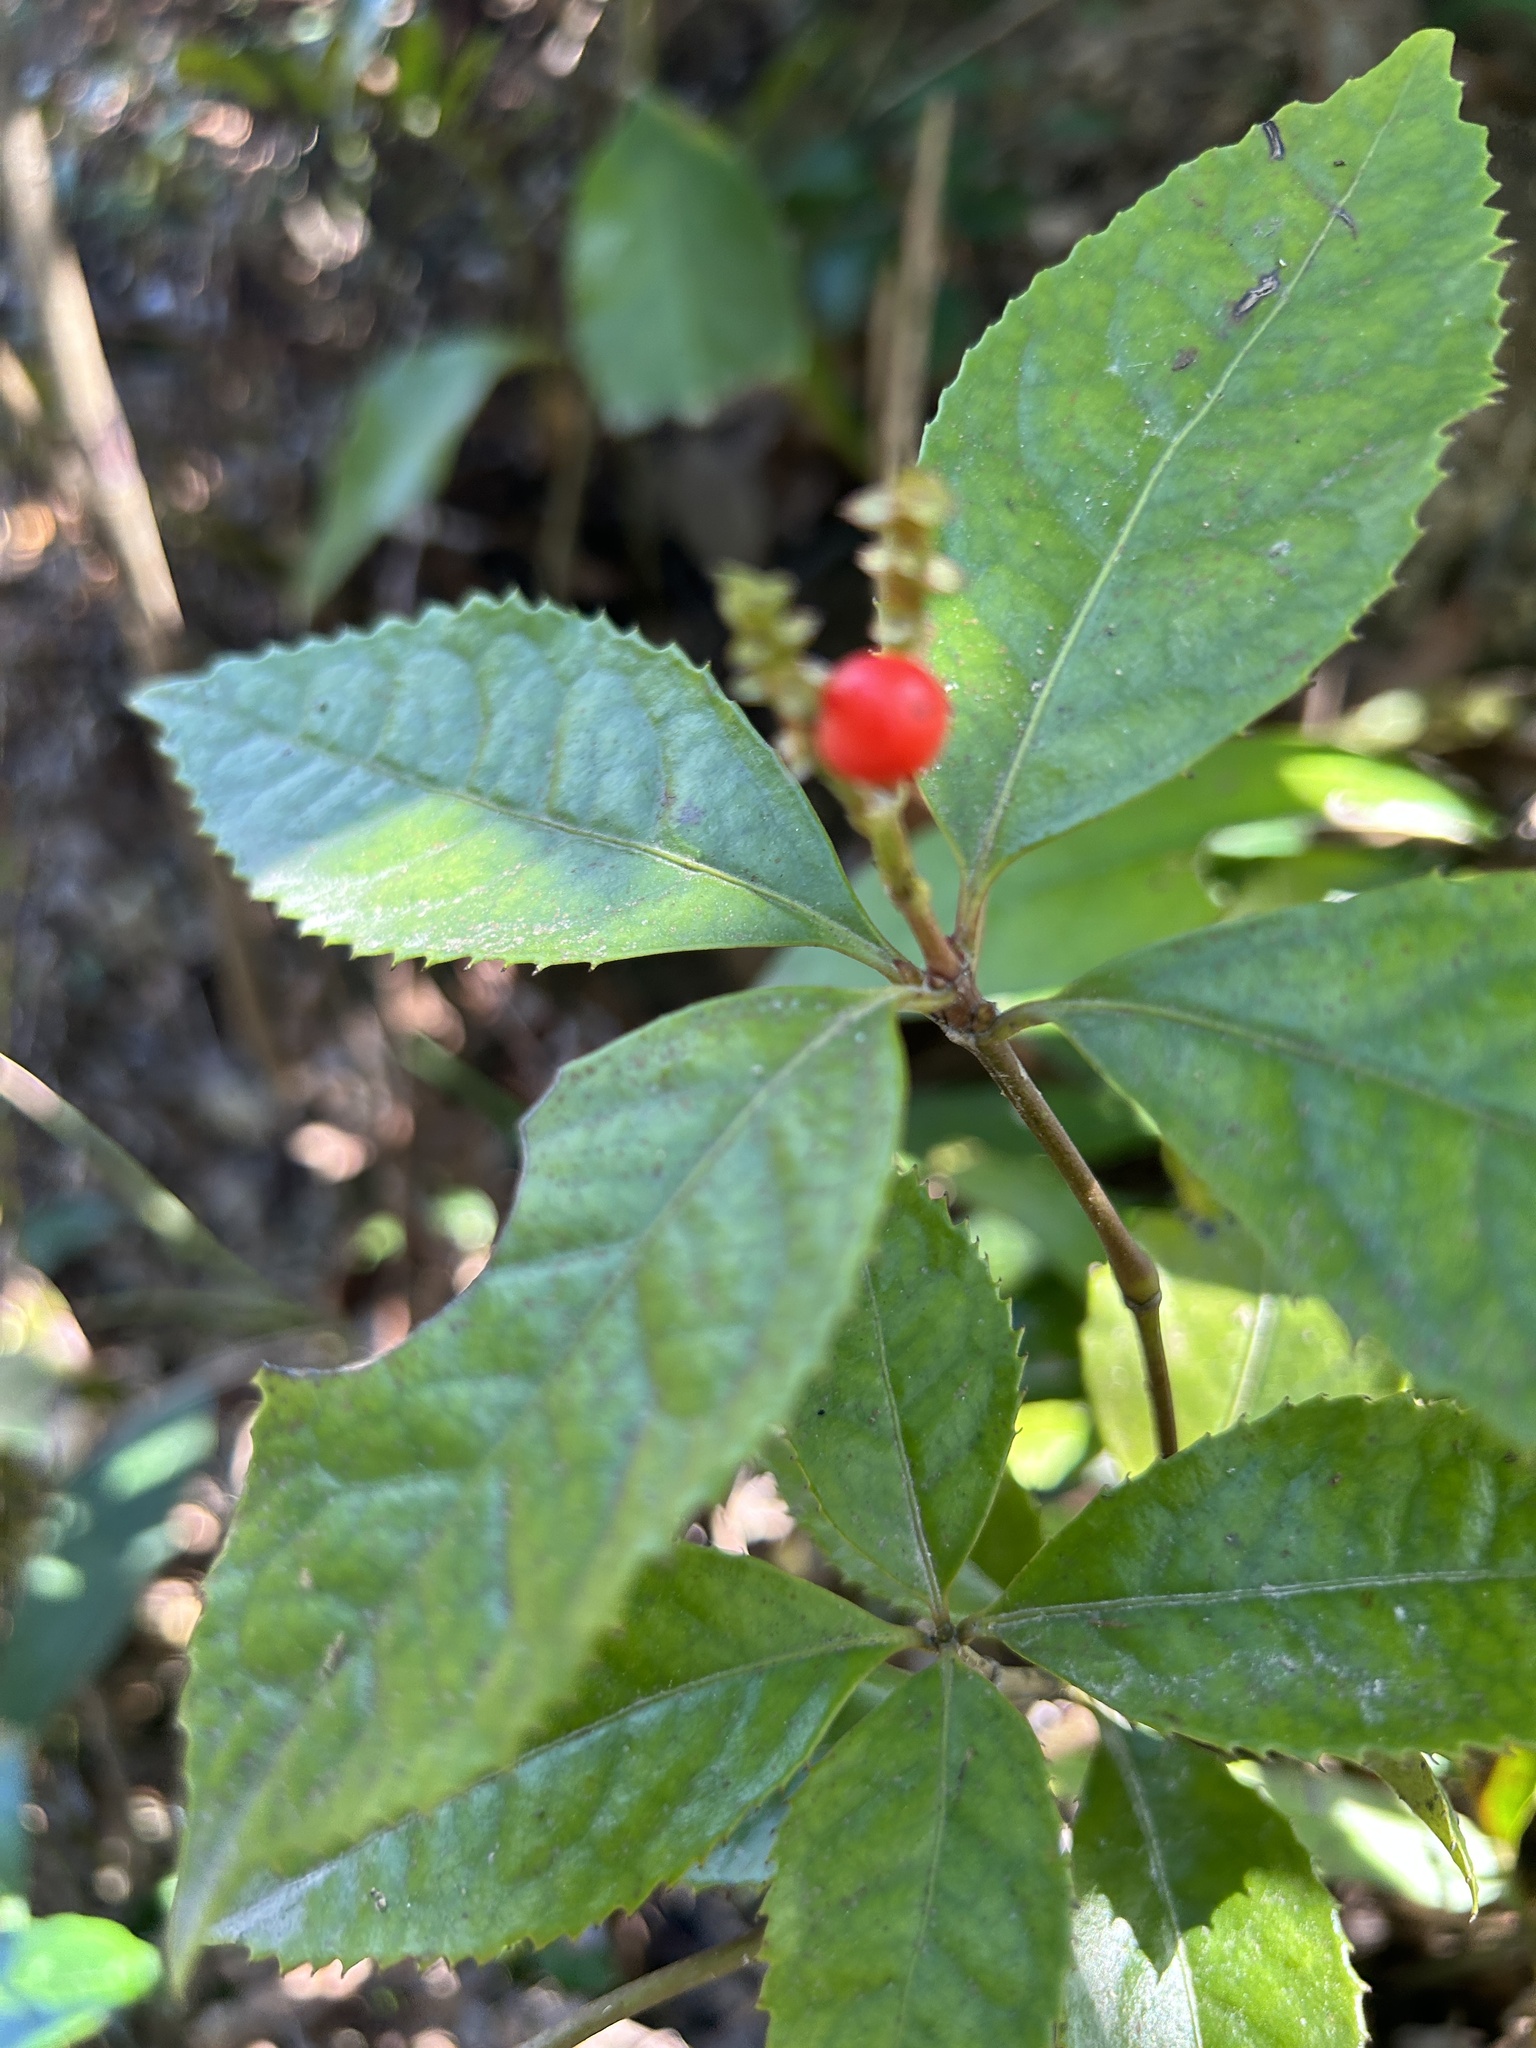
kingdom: Plantae
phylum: Tracheophyta
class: Magnoliopsida
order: Chloranthales
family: Chloranthaceae
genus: Sarcandra
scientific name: Sarcandra glabra
